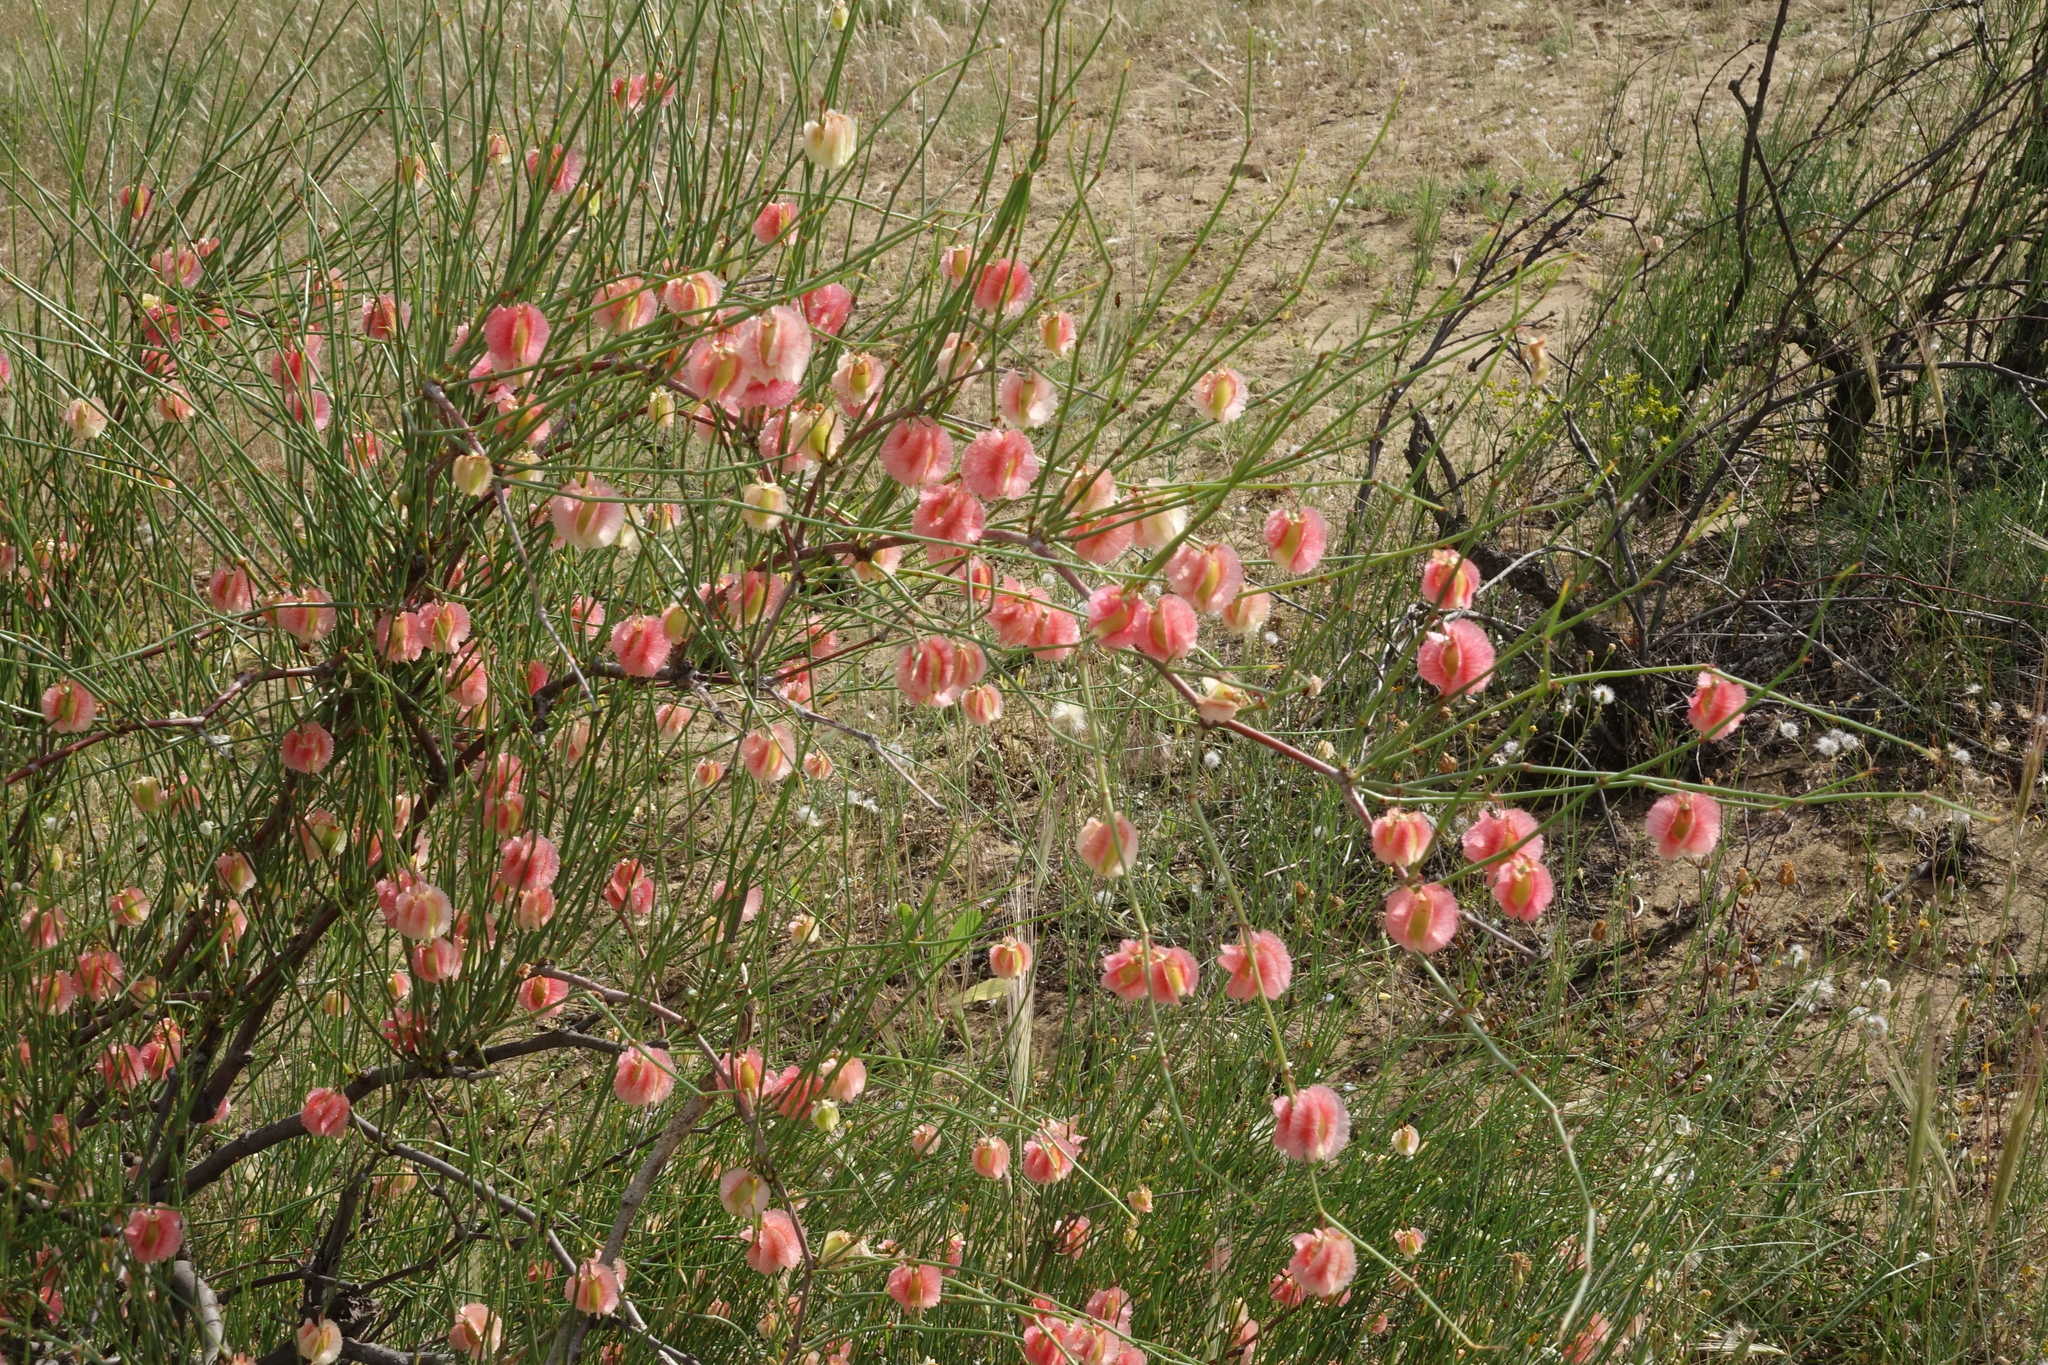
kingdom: Plantae
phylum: Tracheophyta
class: Magnoliopsida
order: Caryophyllales
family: Polygonaceae
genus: Calligonum
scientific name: Calligonum aphyllum
